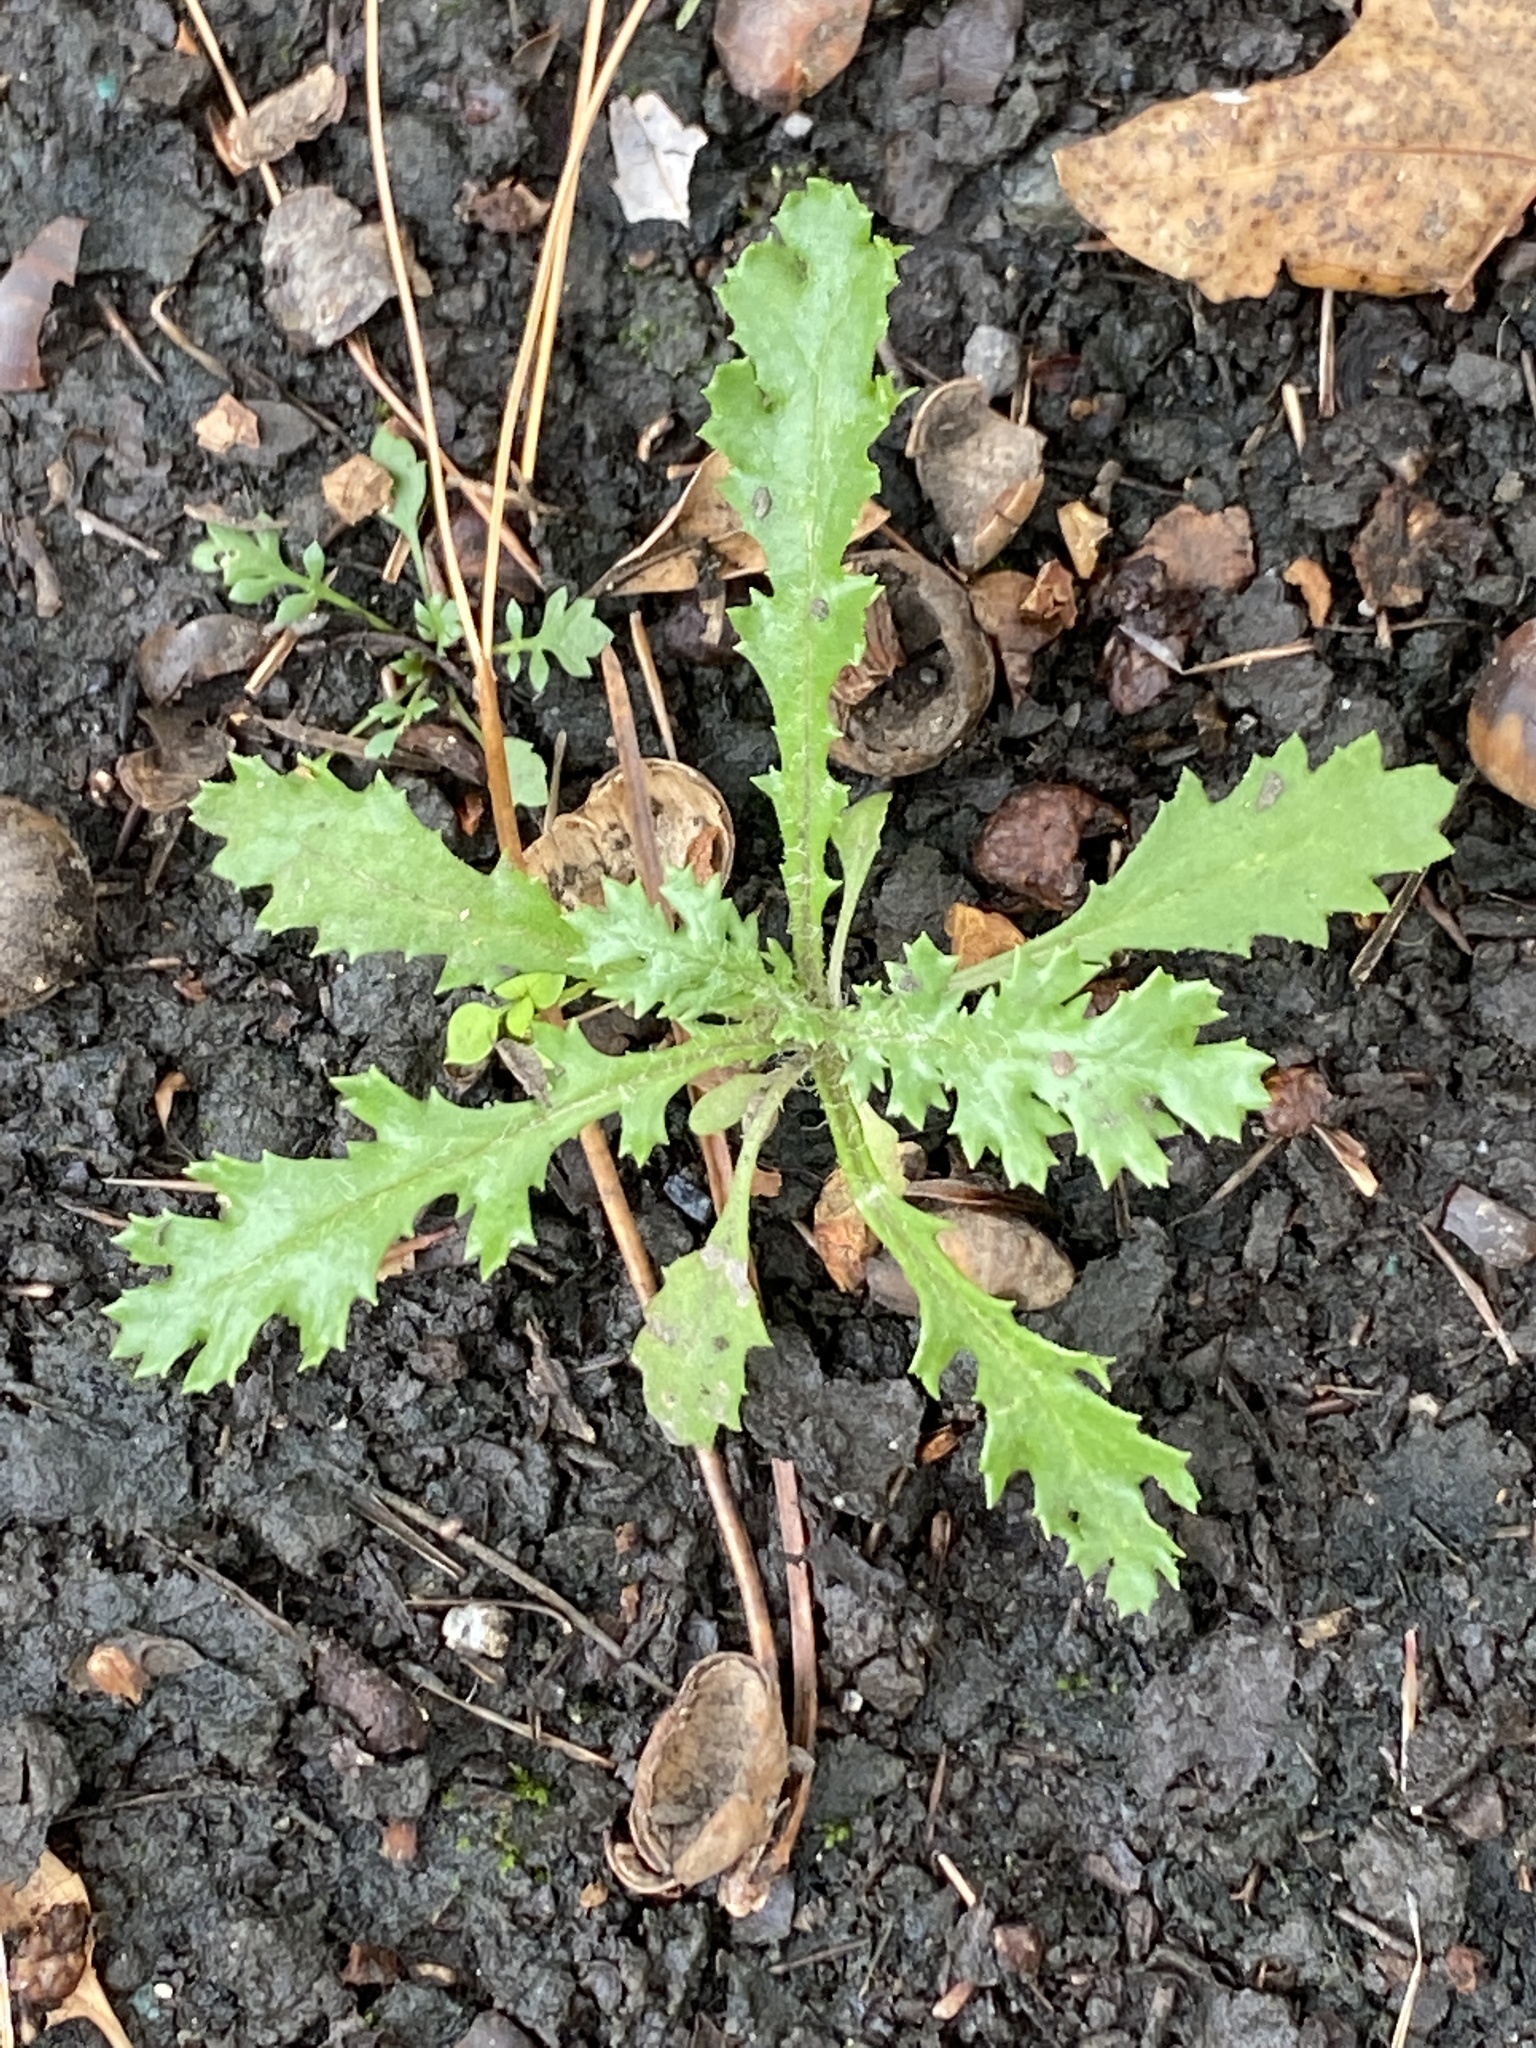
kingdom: Plantae
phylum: Tracheophyta
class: Magnoliopsida
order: Asterales
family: Asteraceae
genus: Senecio
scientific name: Senecio vulgaris
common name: Old-man-in-the-spring
